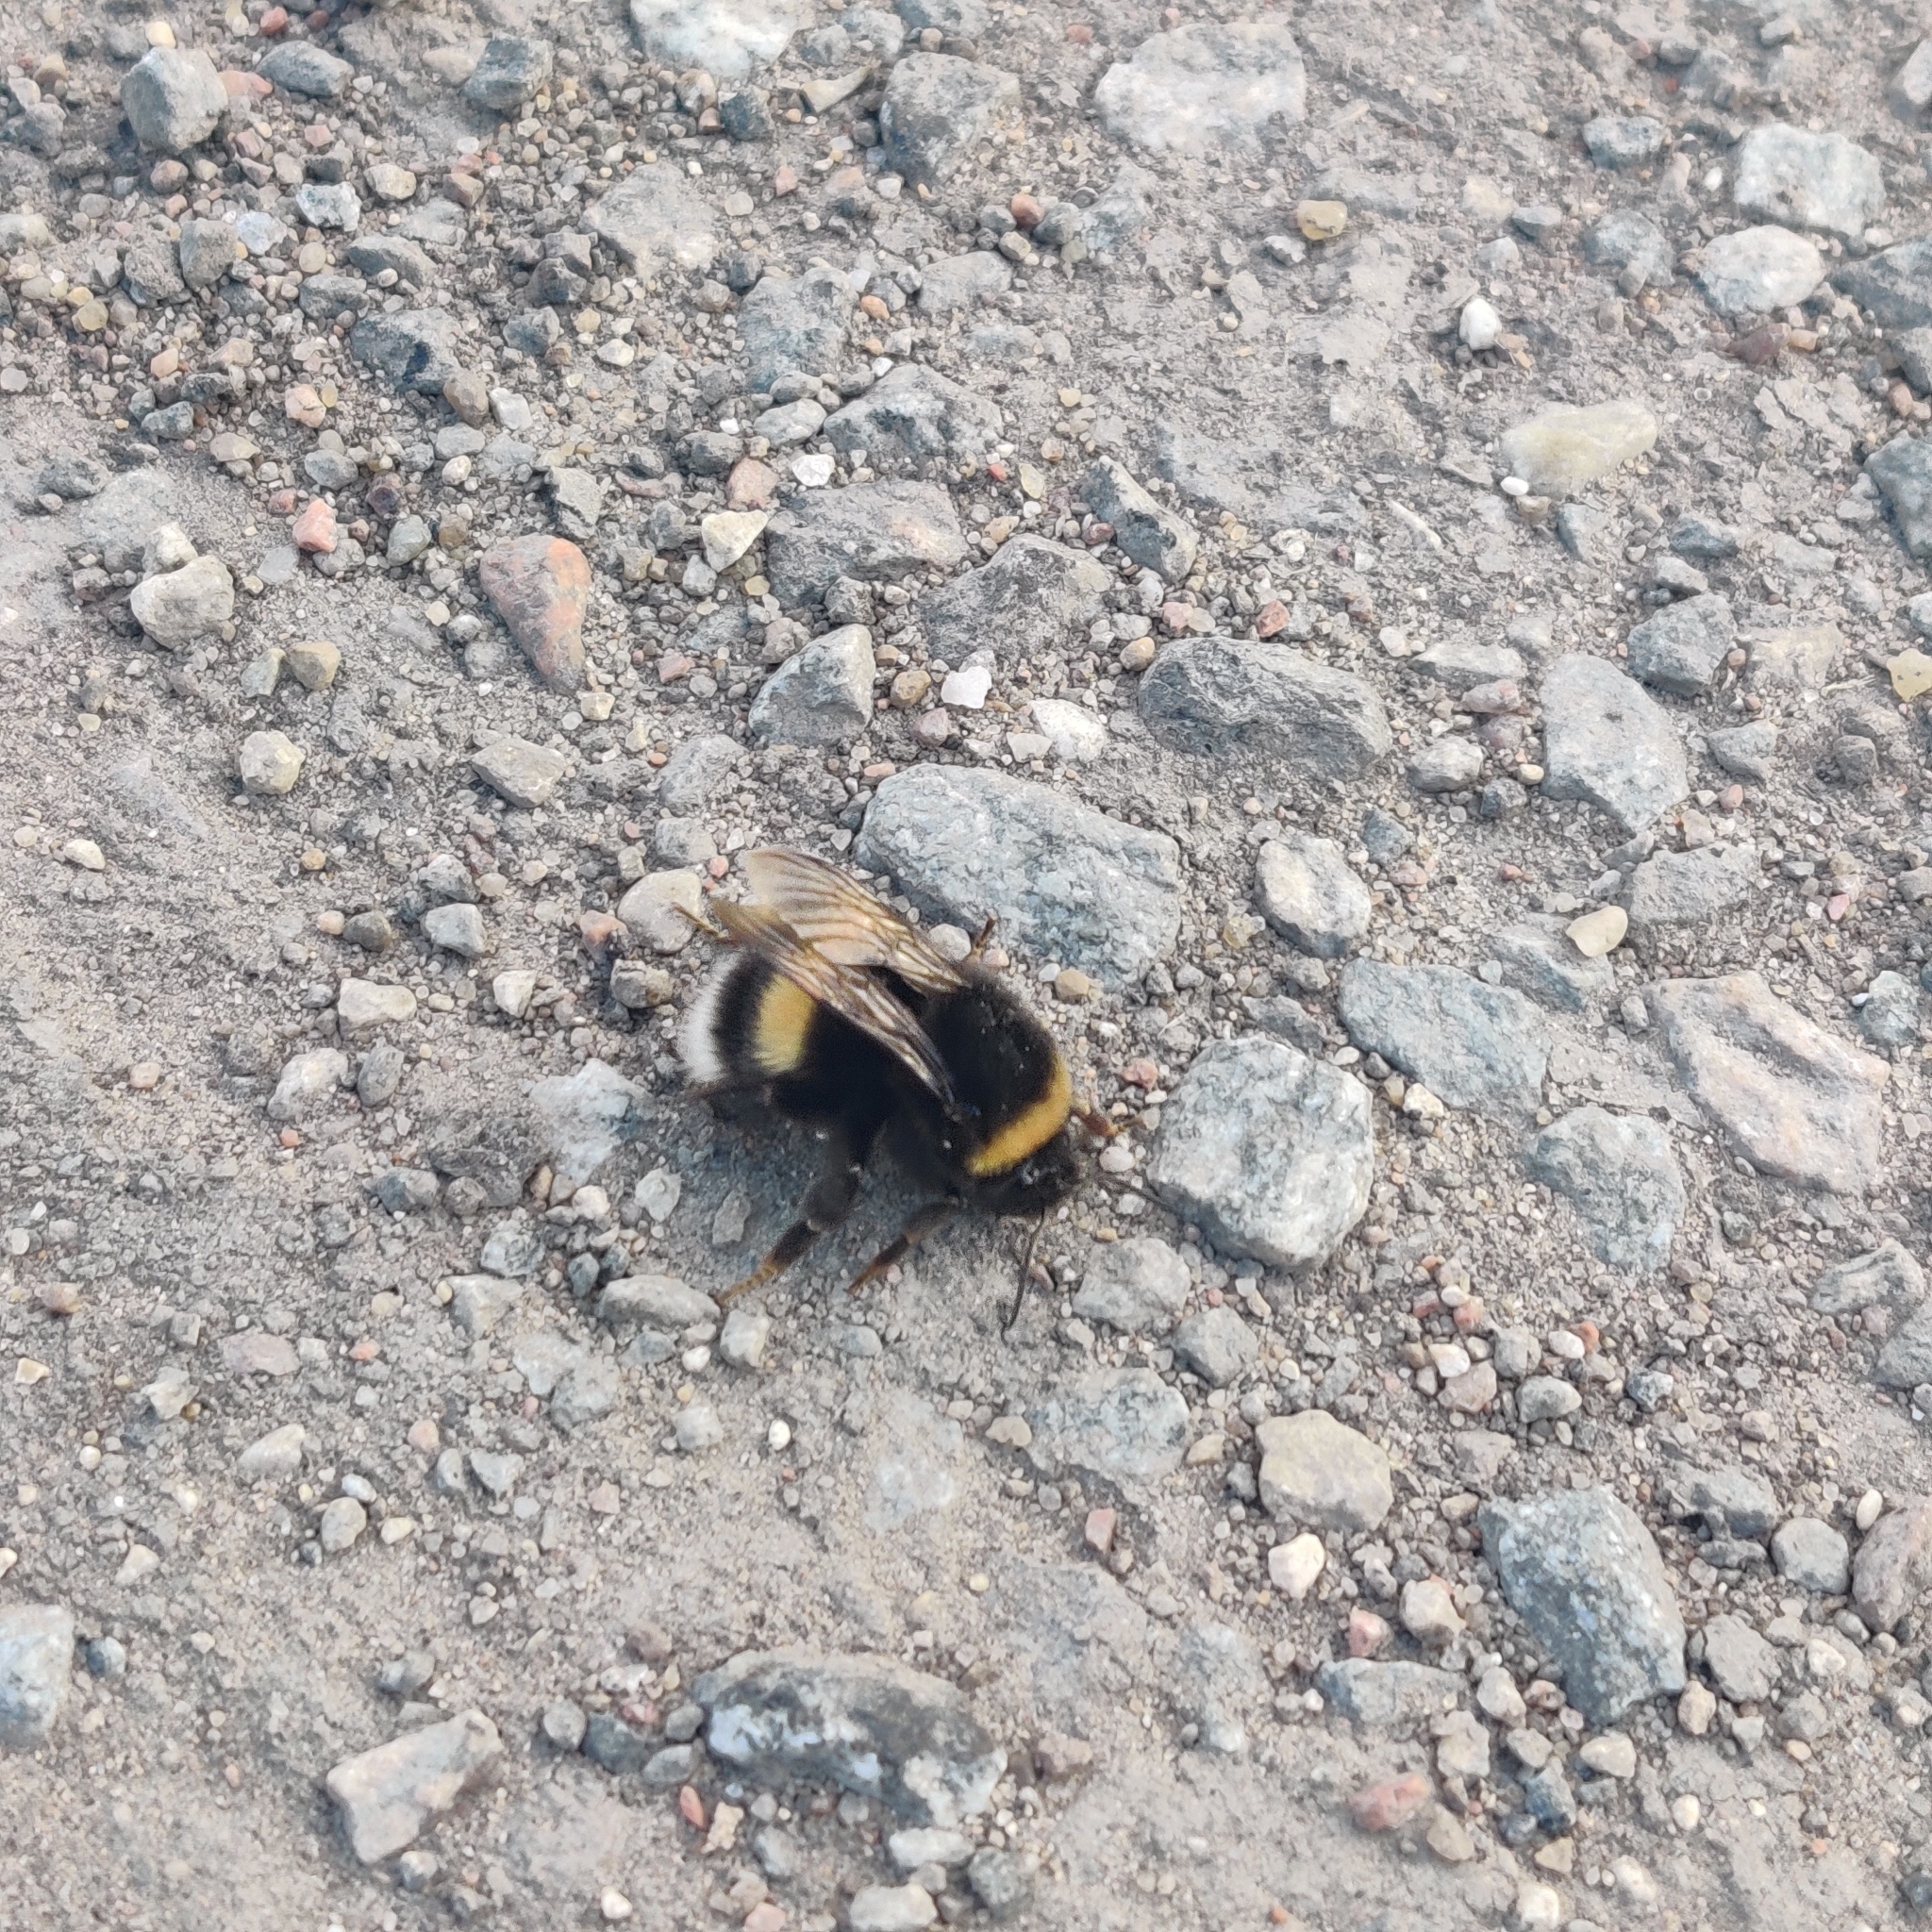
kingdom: Animalia
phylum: Arthropoda
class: Insecta
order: Hymenoptera
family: Apidae
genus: Bombus
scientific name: Bombus
